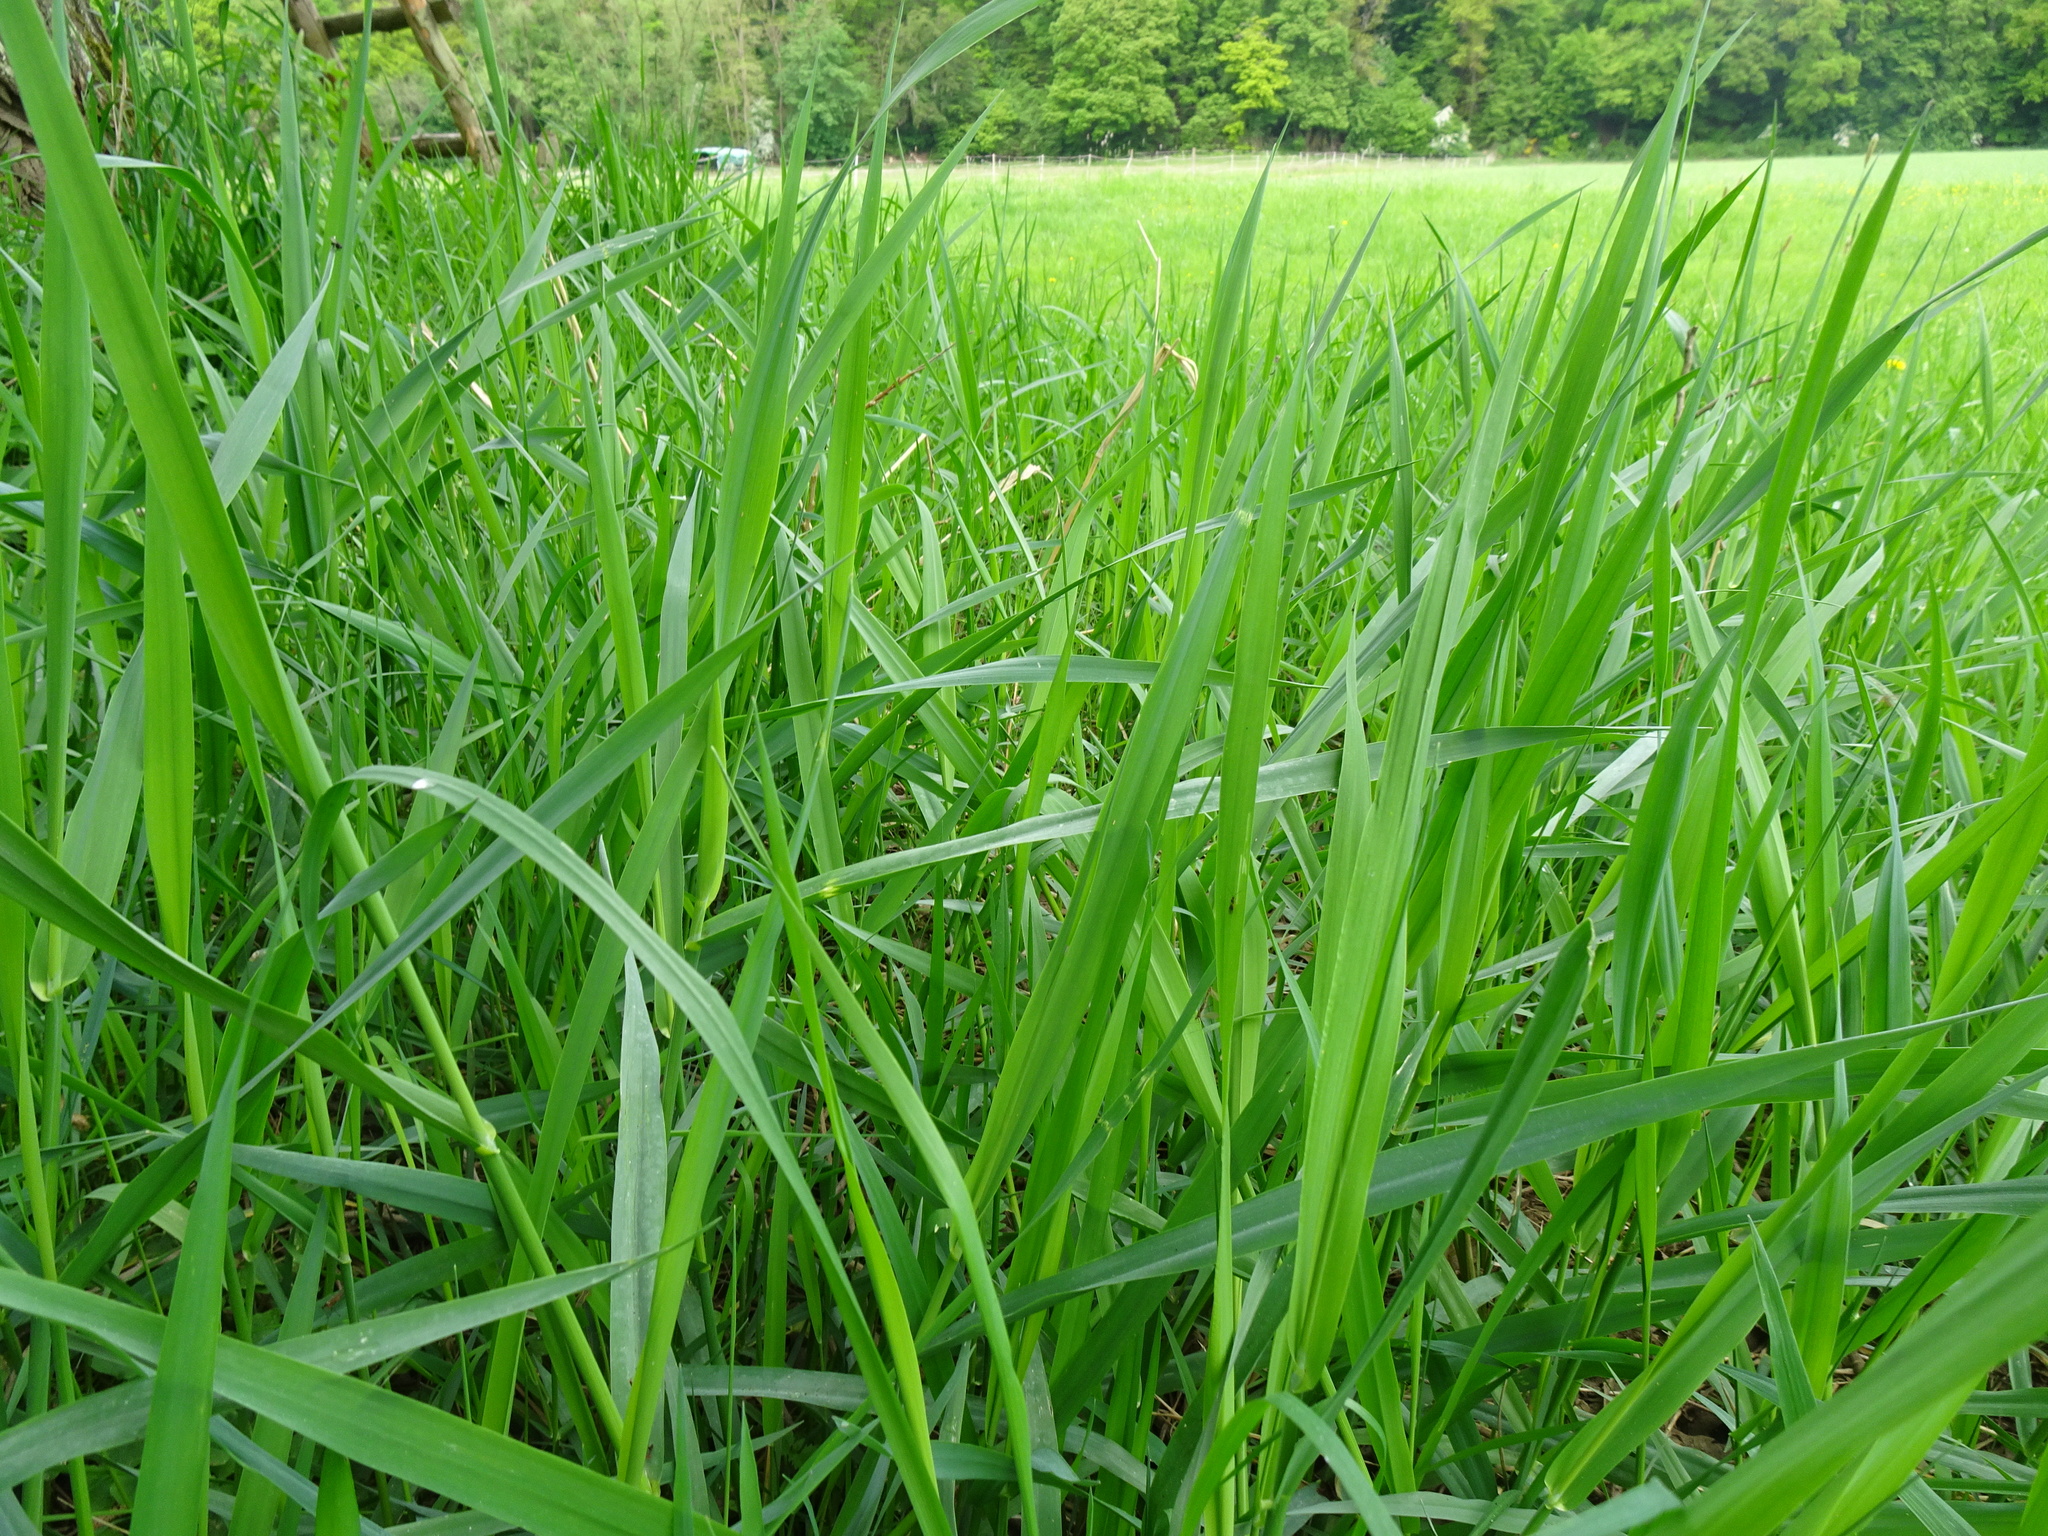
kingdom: Plantae
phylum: Tracheophyta
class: Liliopsida
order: Poales
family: Poaceae
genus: Phalaris
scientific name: Phalaris arundinacea
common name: Reed canary-grass
